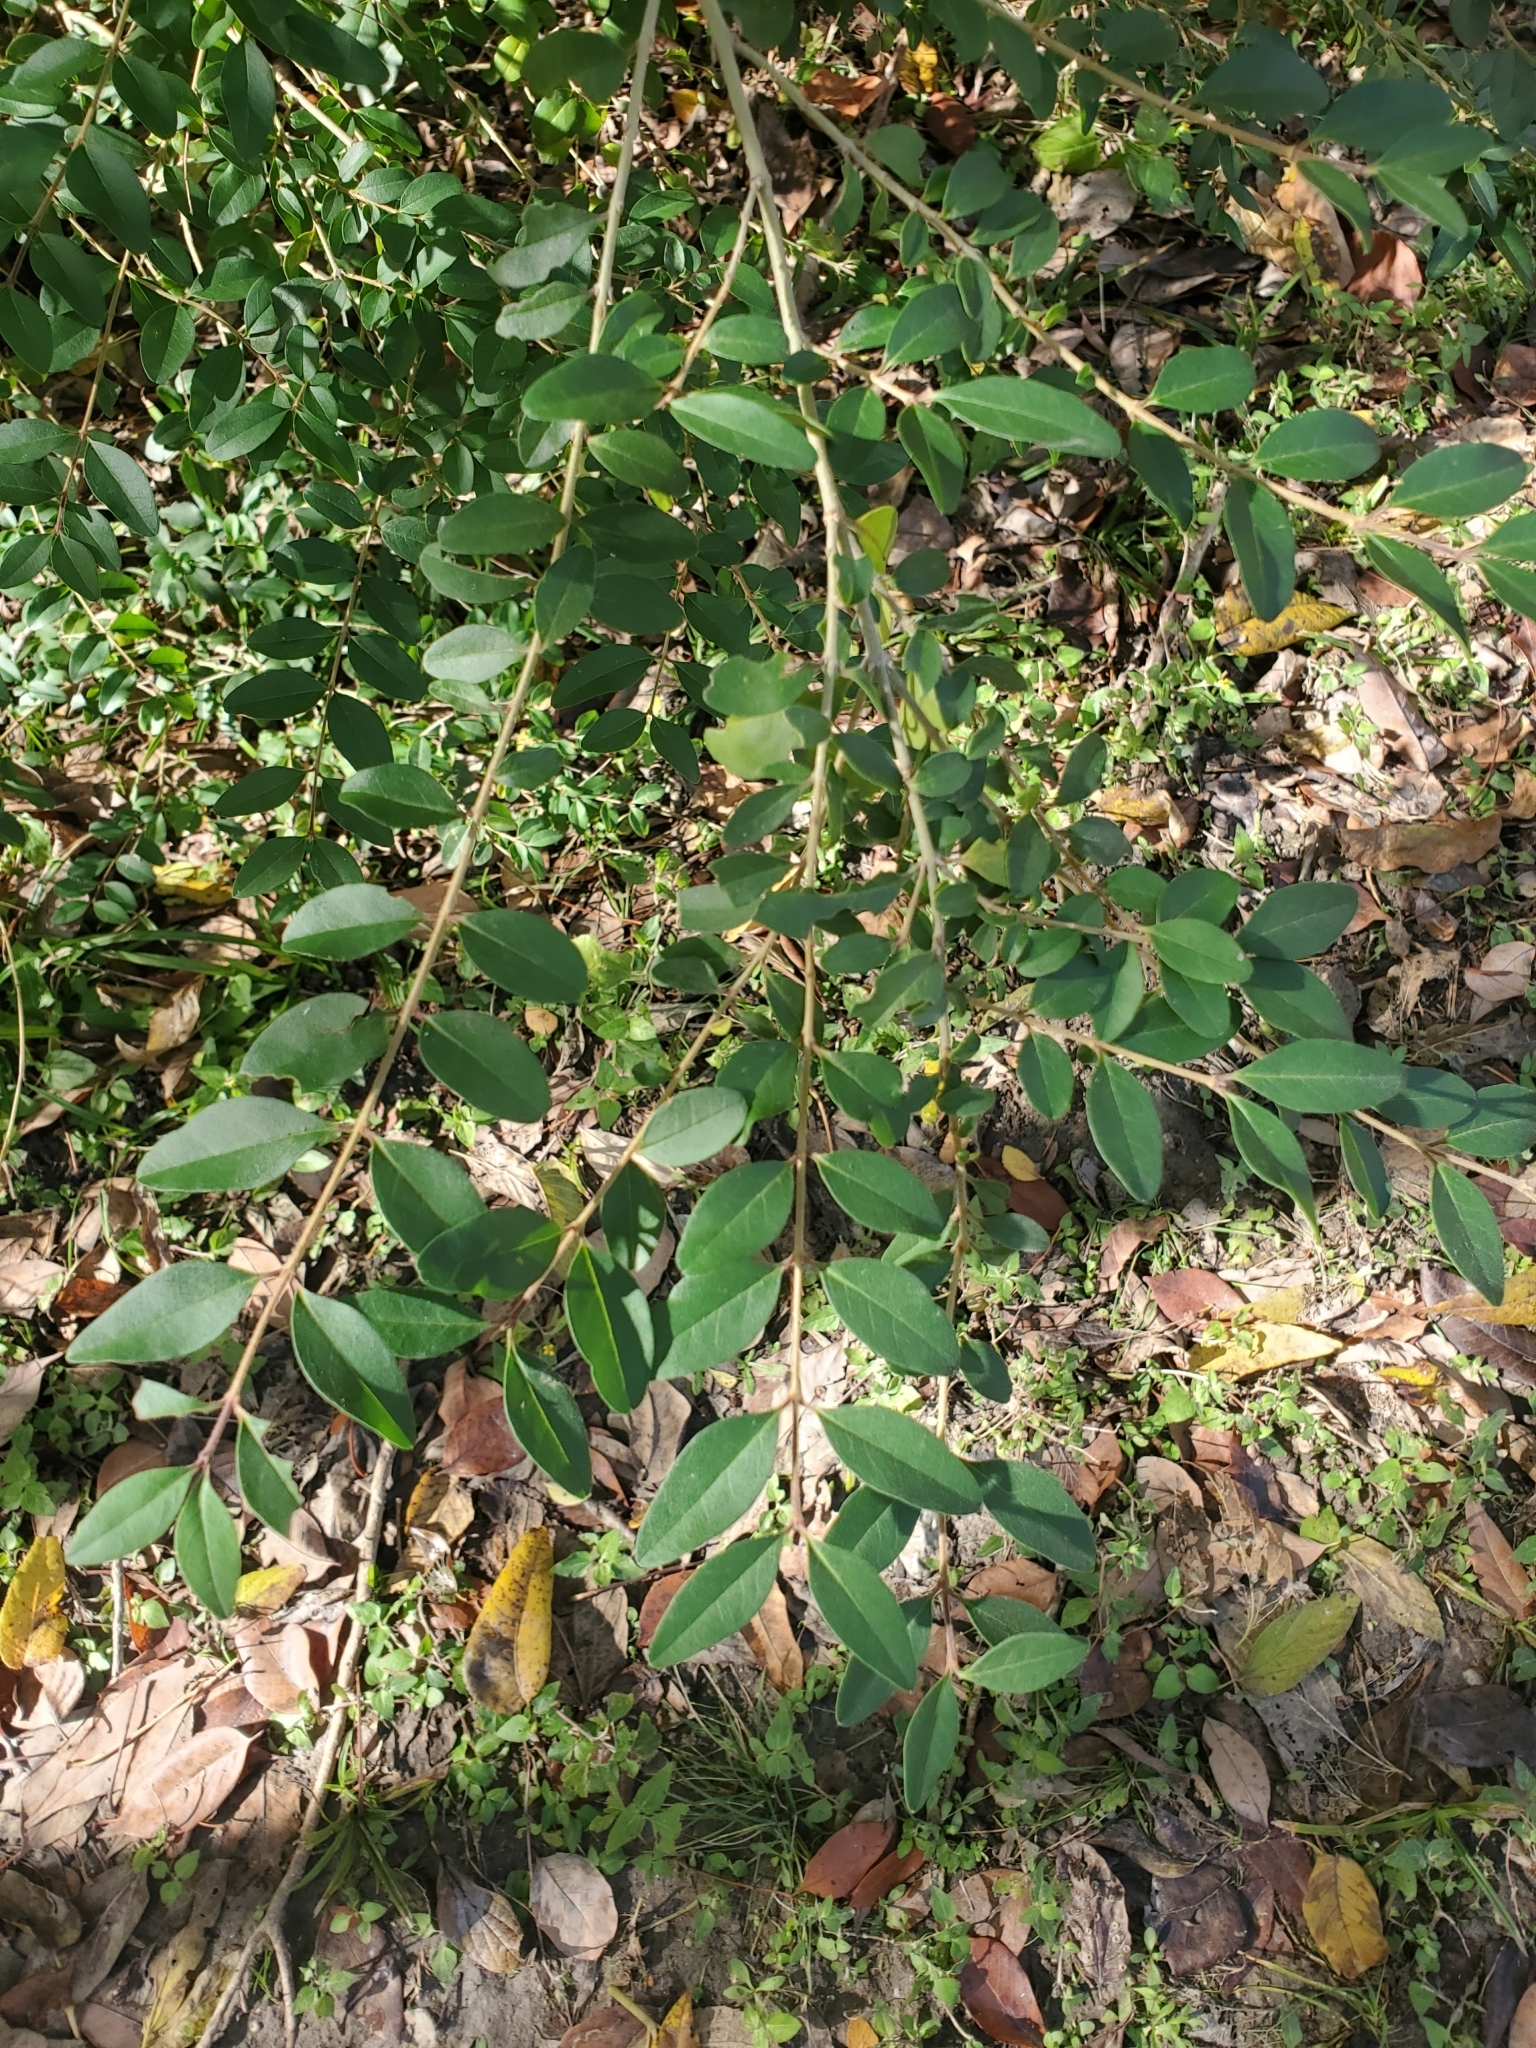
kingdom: Plantae
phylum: Tracheophyta
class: Magnoliopsida
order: Lamiales
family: Oleaceae
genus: Ligustrum
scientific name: Ligustrum sinense
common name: Chinese privet
